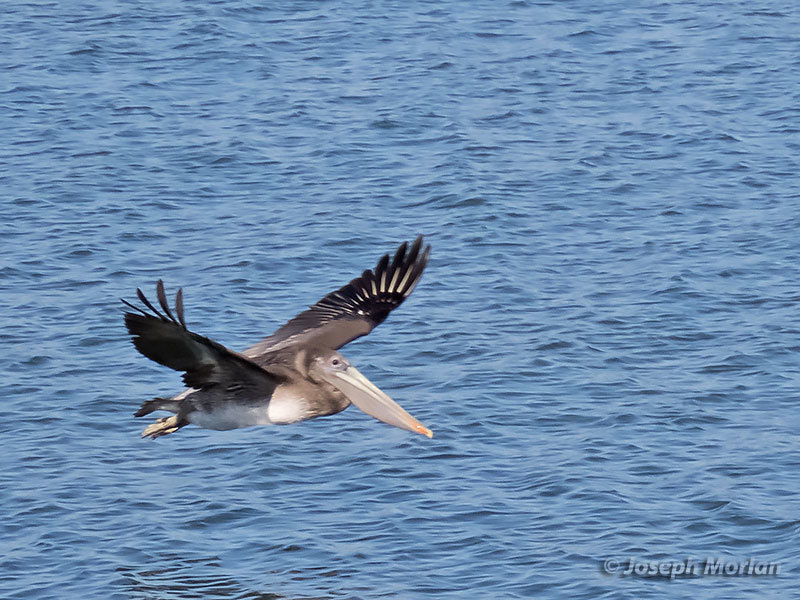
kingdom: Animalia
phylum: Chordata
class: Aves
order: Pelecaniformes
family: Pelecanidae
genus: Pelecanus
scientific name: Pelecanus occidentalis
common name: Brown pelican
